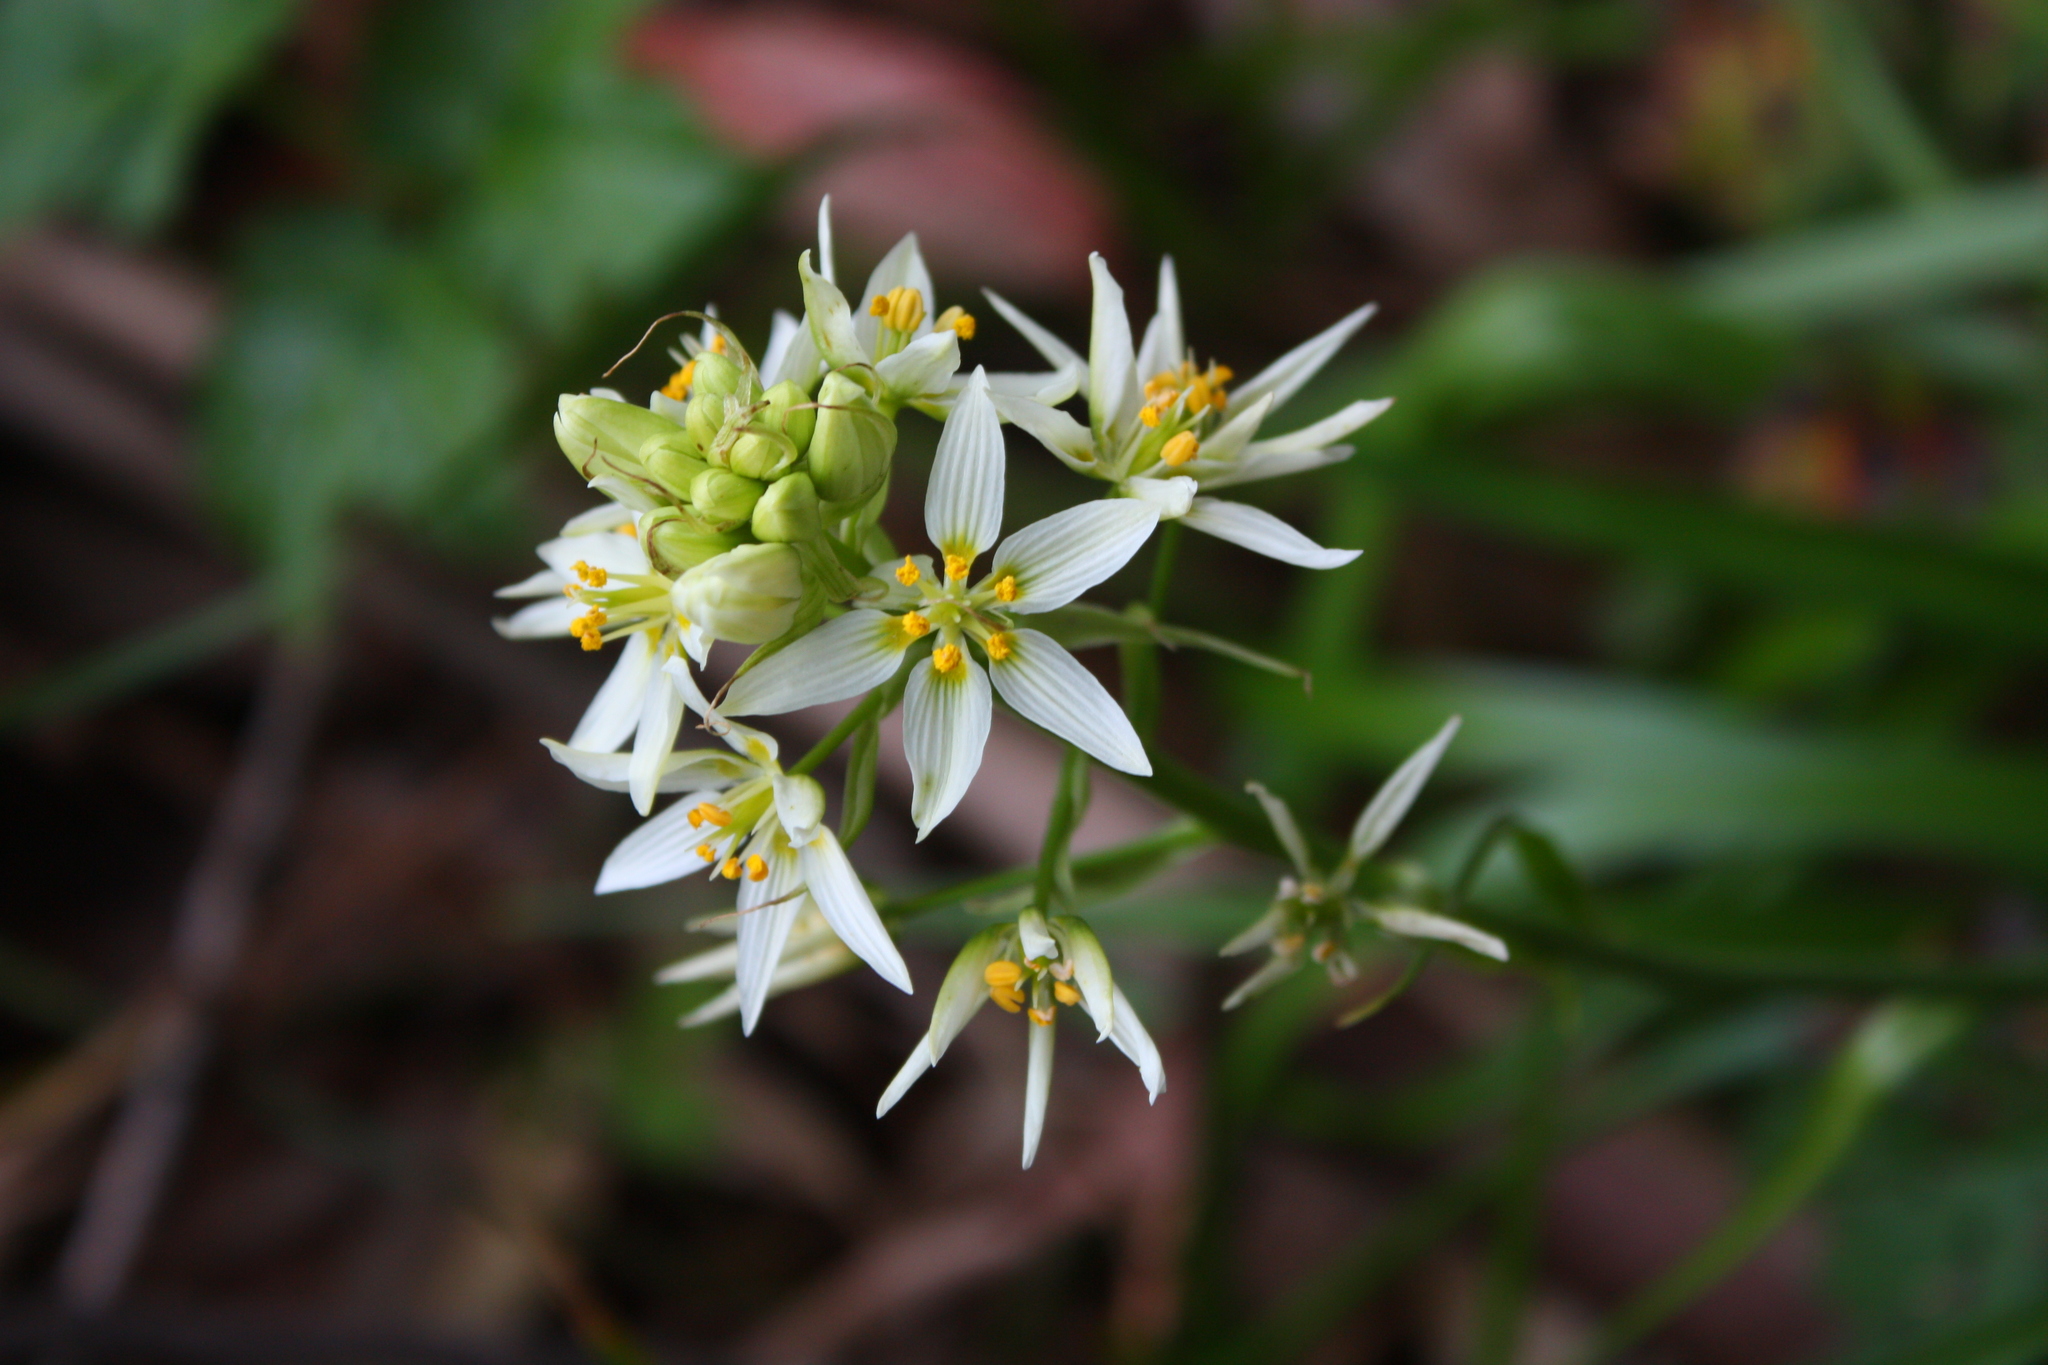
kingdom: Plantae
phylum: Tracheophyta
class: Liliopsida
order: Liliales
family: Melanthiaceae
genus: Toxicoscordion
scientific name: Toxicoscordion fremontii
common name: Fremont's death camas
